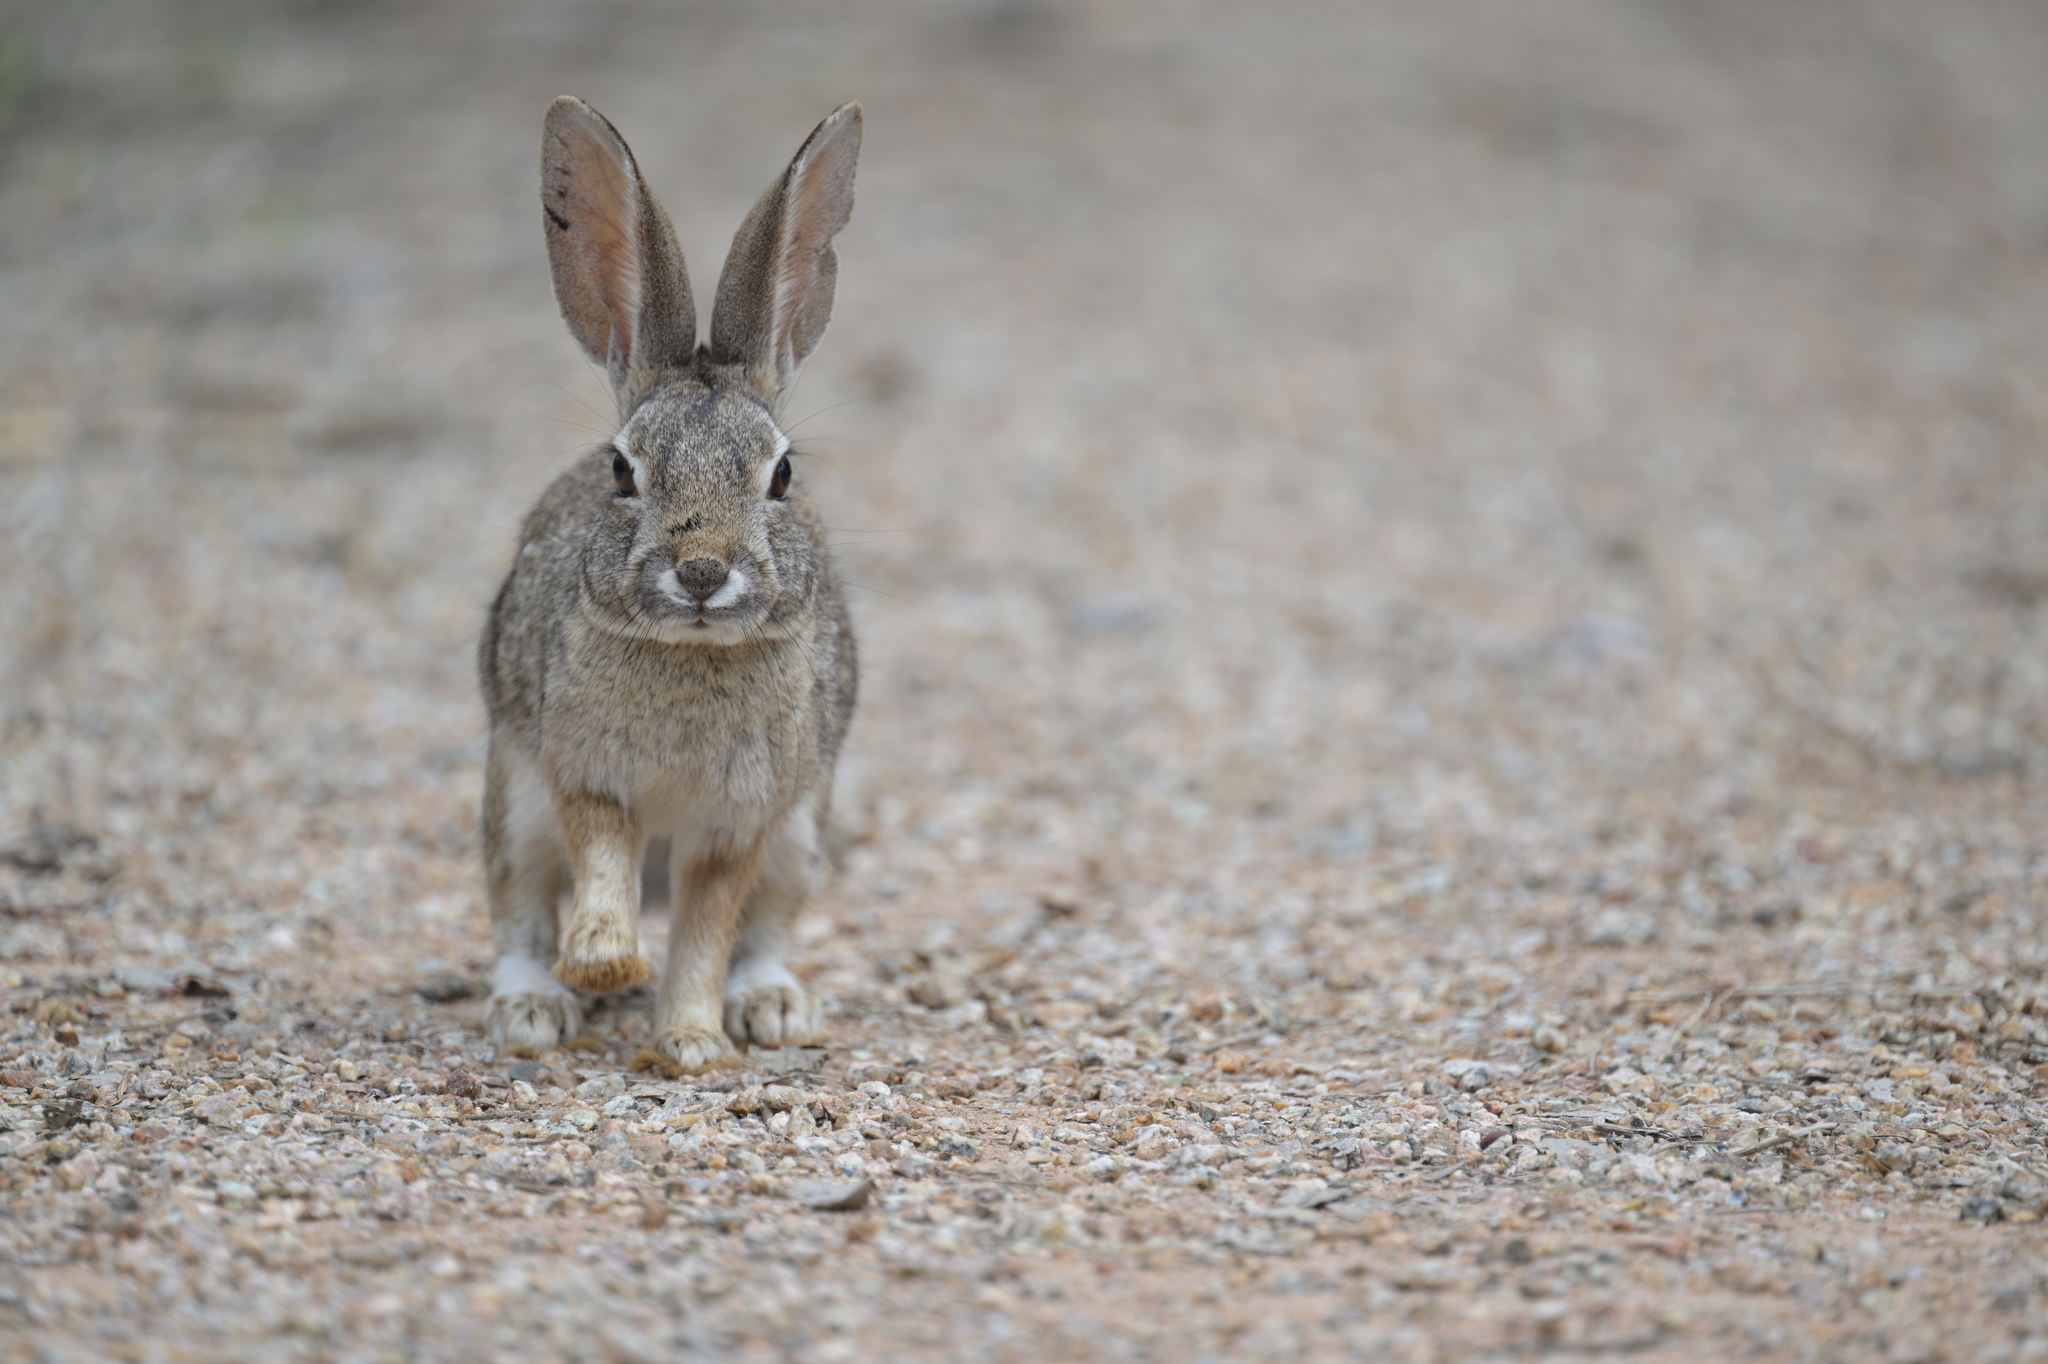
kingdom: Animalia
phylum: Chordata
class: Mammalia
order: Lagomorpha
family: Leporidae
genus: Sylvilagus
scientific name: Sylvilagus audubonii
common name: Desert cottontail
